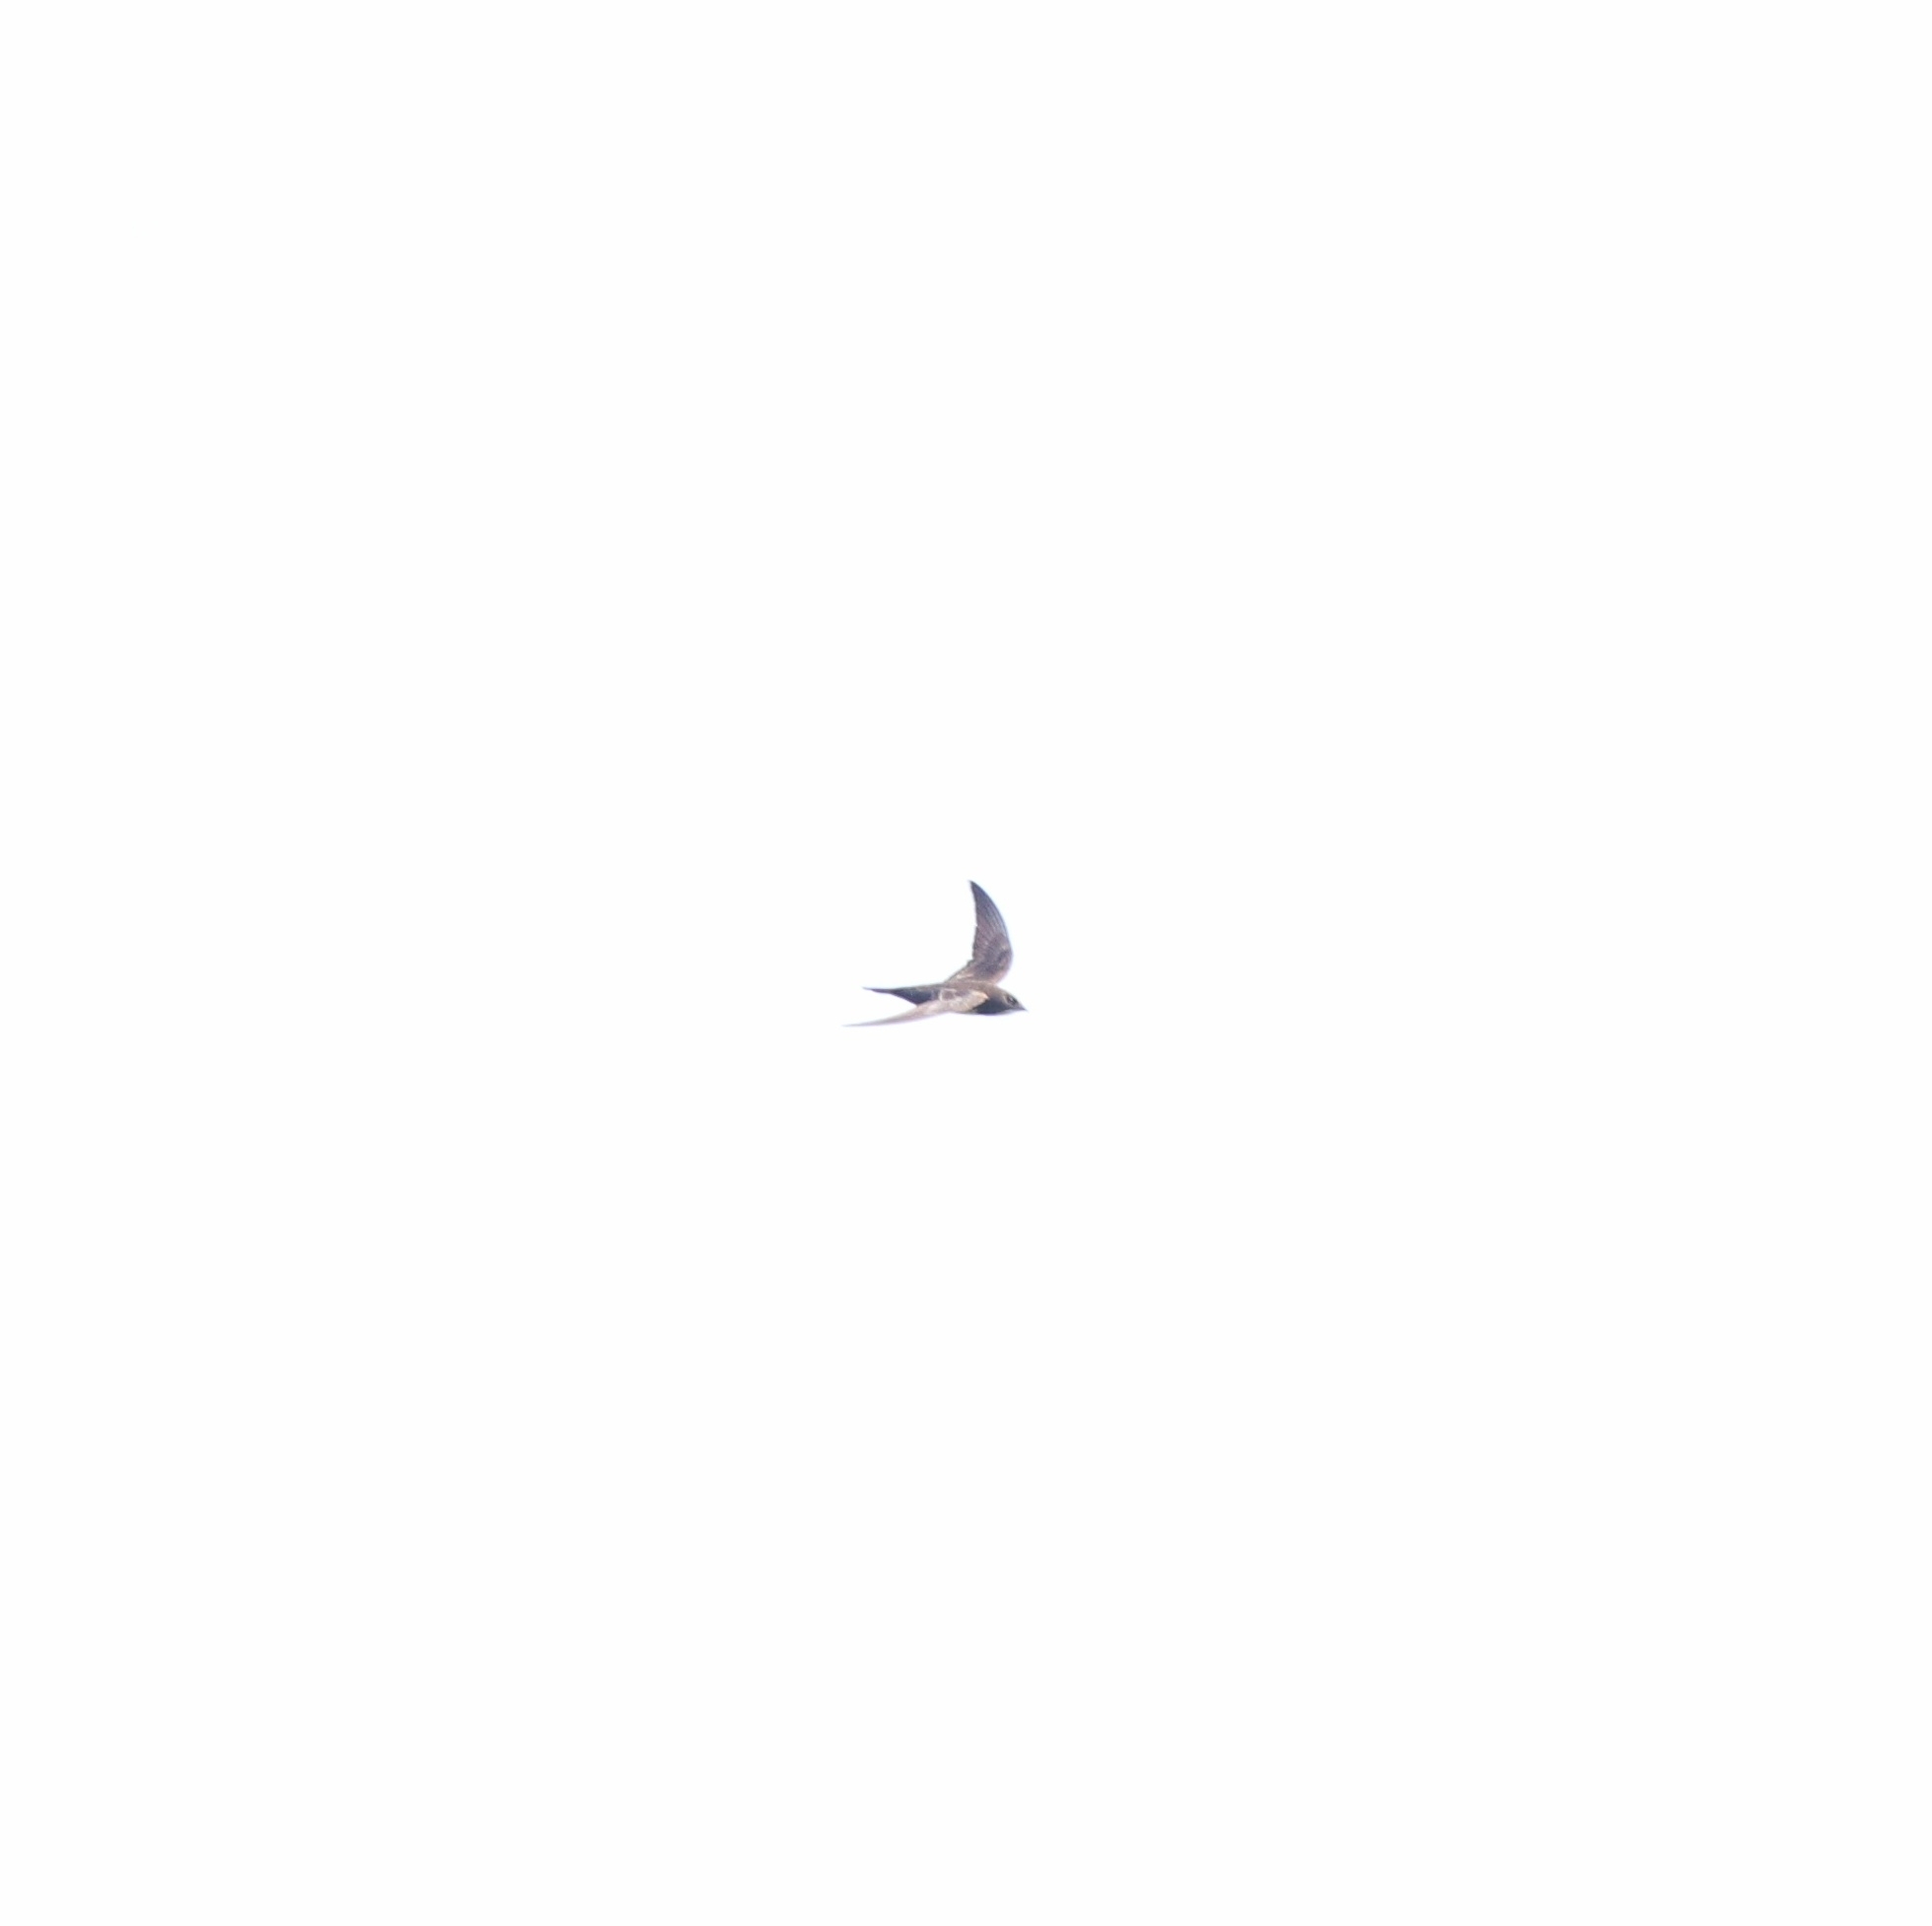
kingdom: Animalia
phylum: Chordata
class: Aves
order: Apodiformes
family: Apodidae
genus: Tachymarptis
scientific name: Tachymarptis melba
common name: Alpine swift
